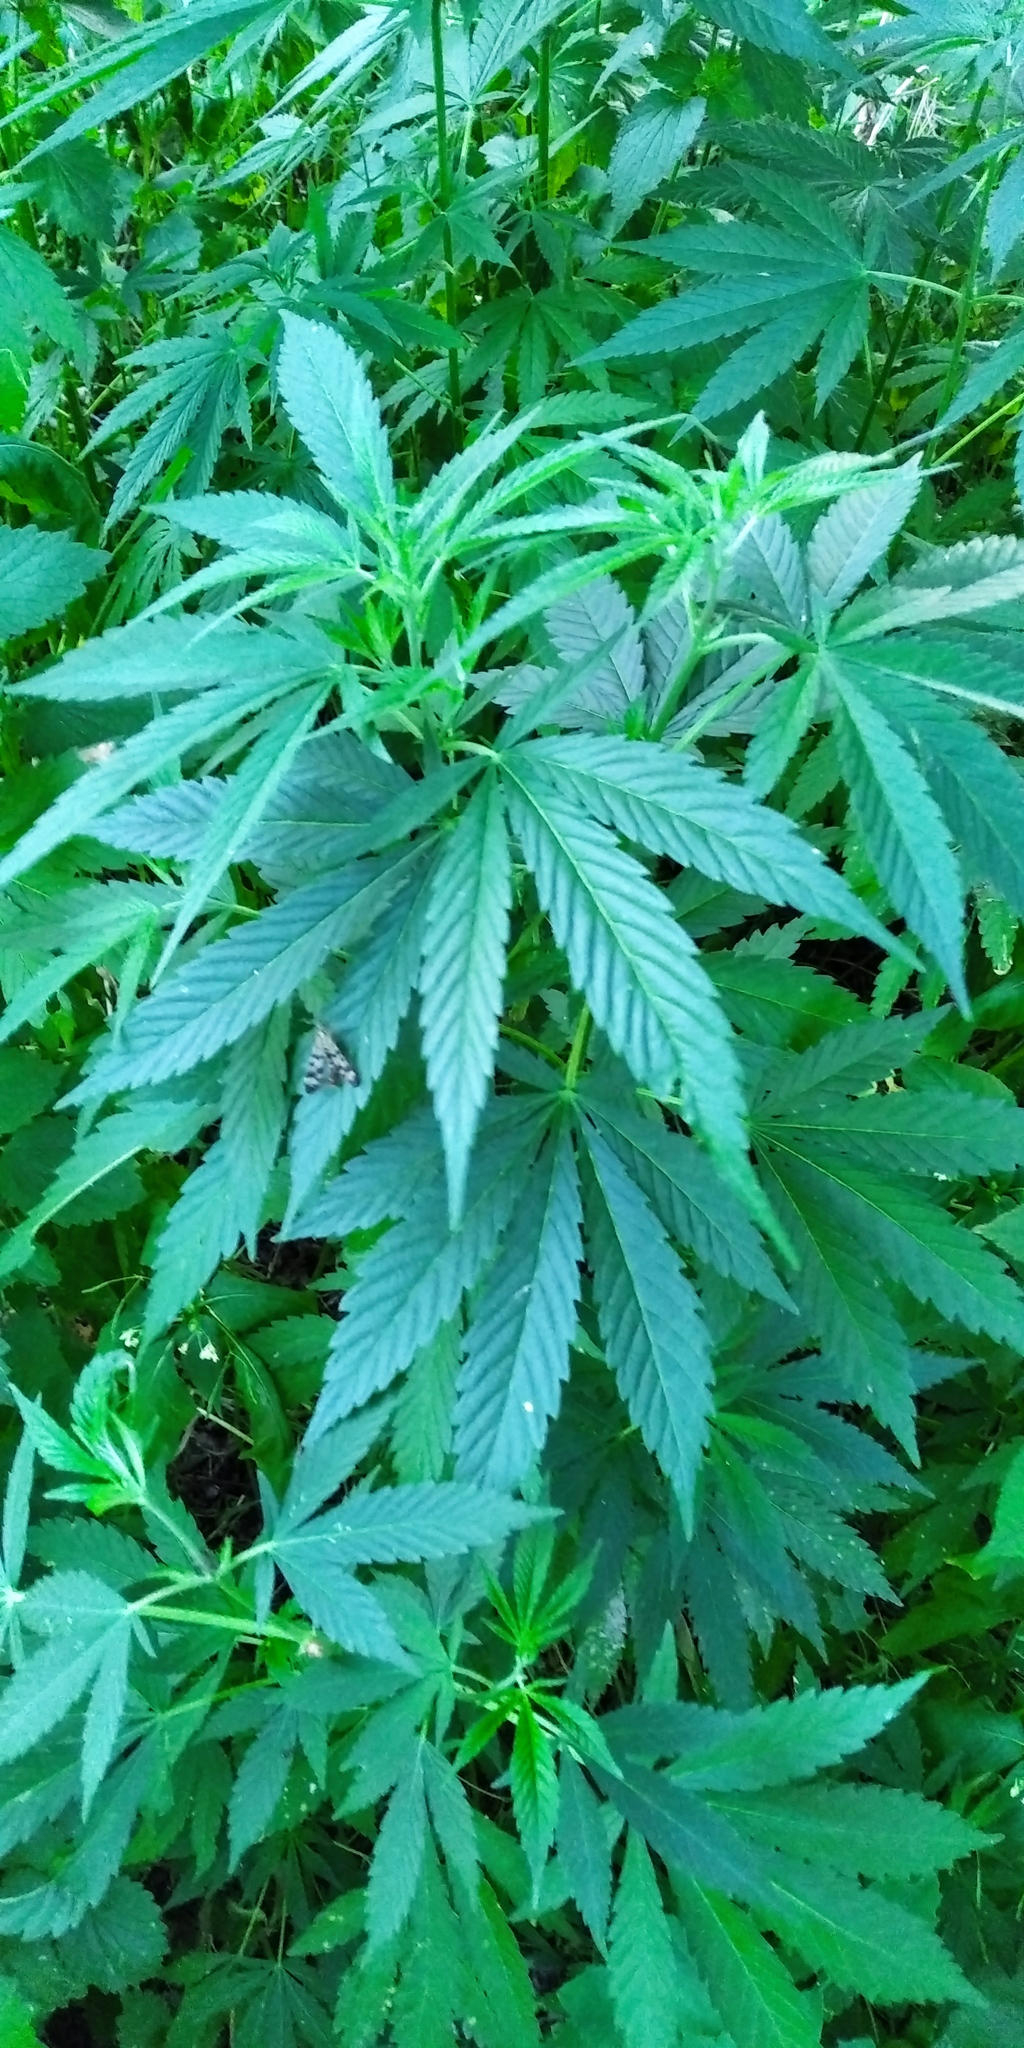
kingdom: Plantae
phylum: Tracheophyta
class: Magnoliopsida
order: Rosales
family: Cannabaceae
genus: Cannabis
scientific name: Cannabis sativa
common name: Hemp
